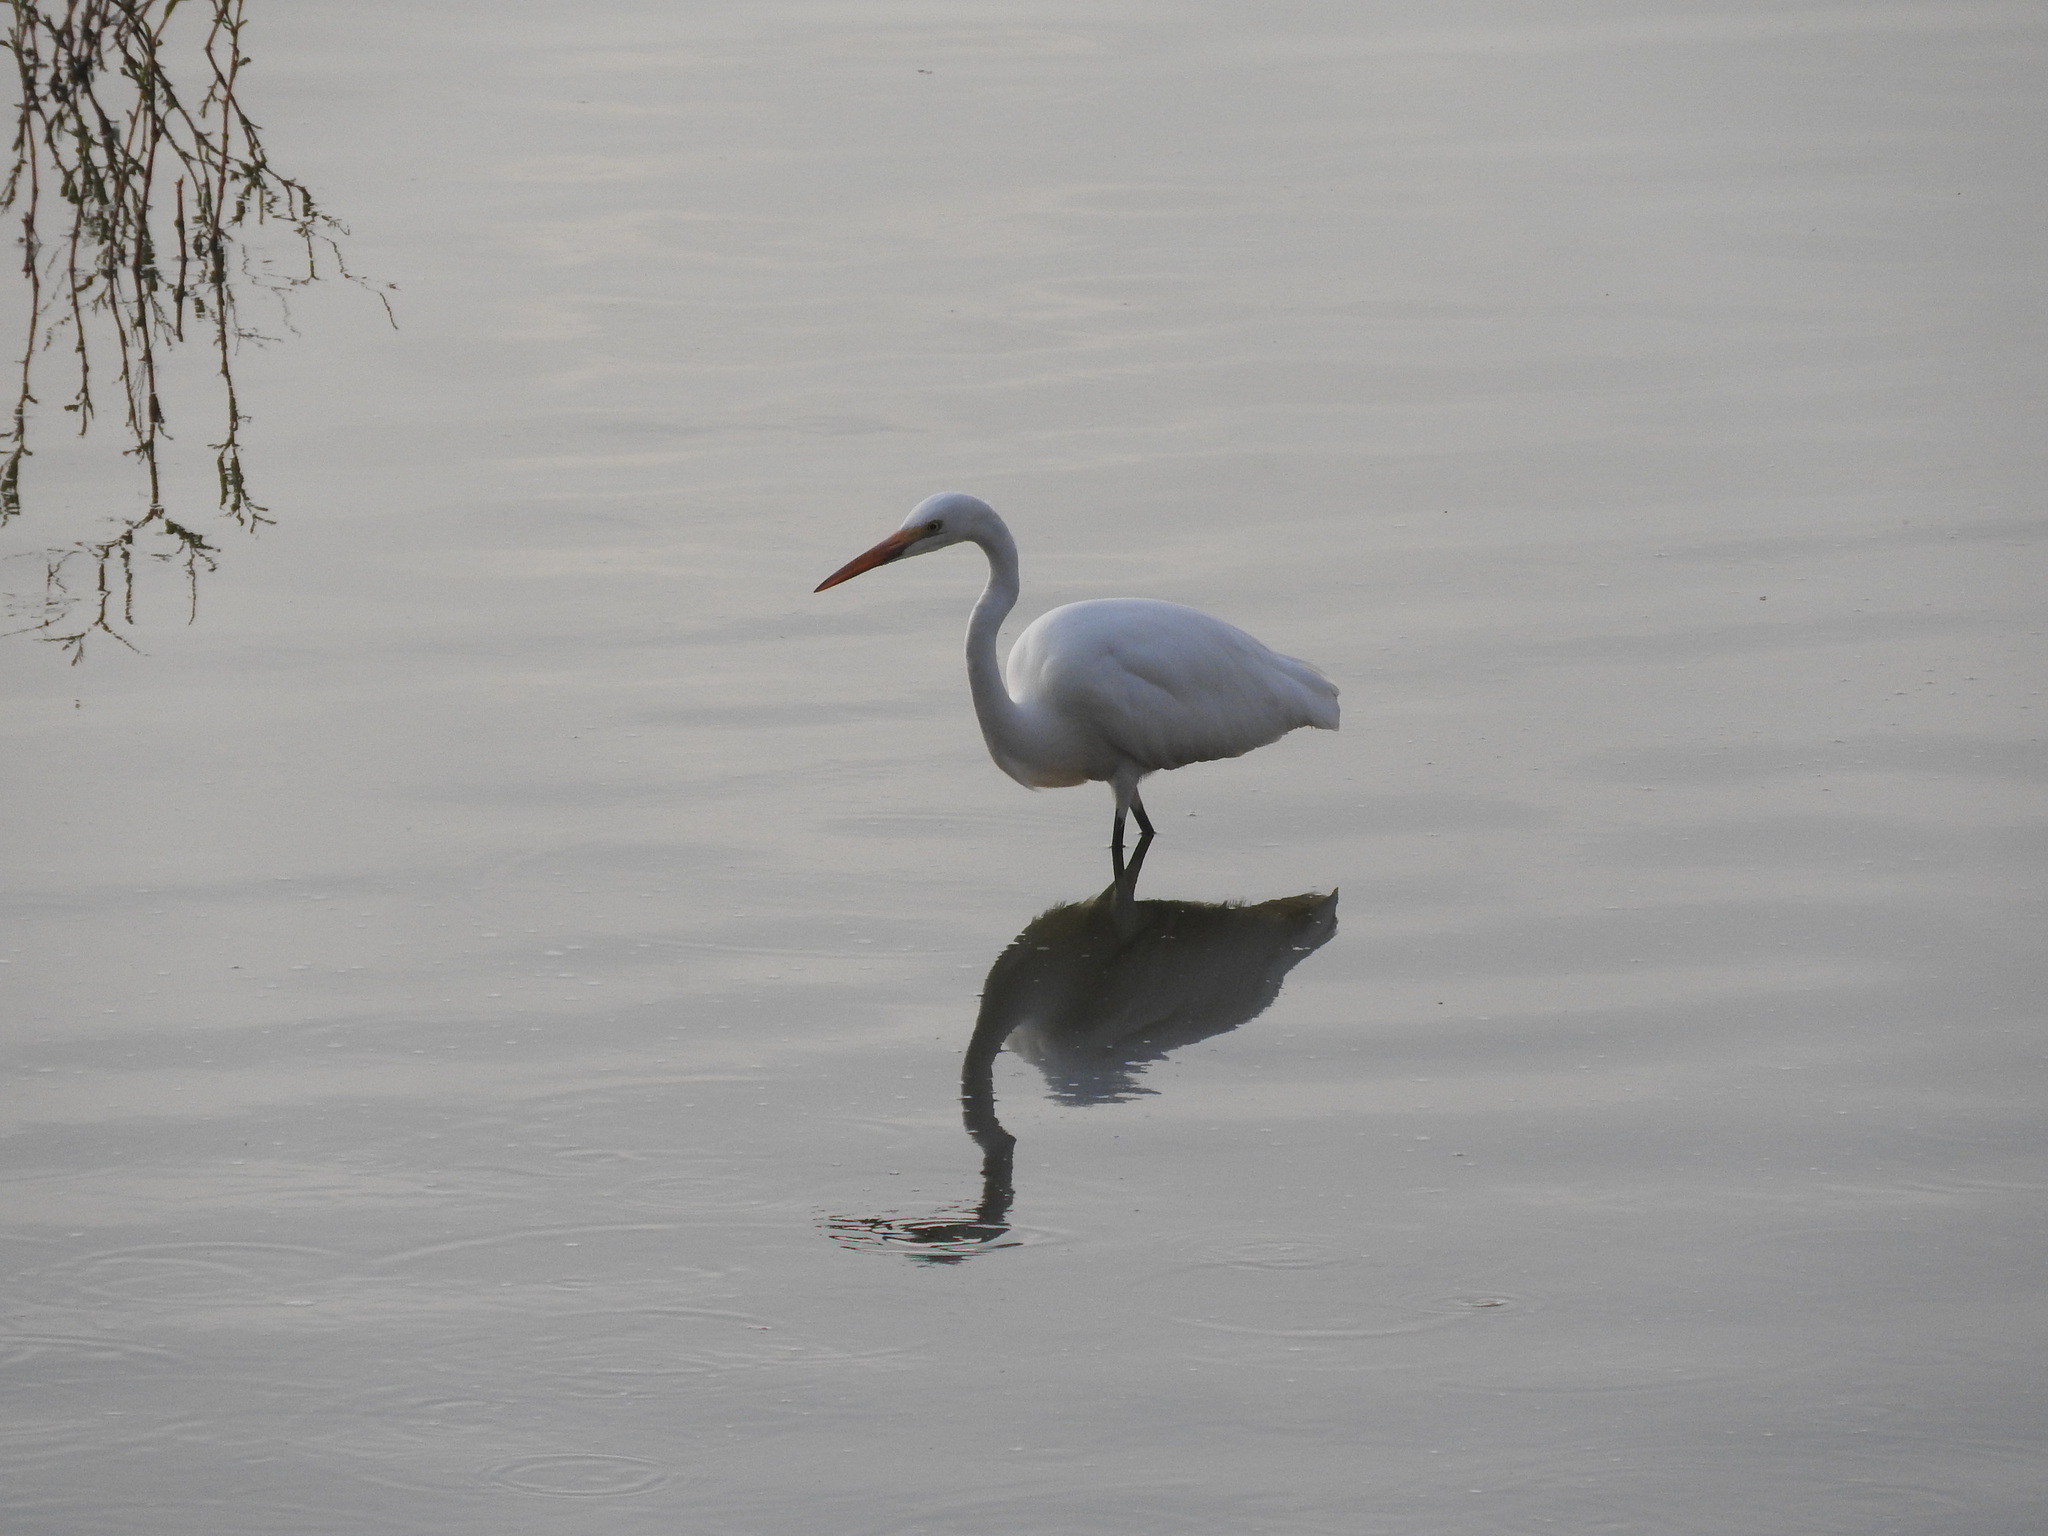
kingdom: Animalia
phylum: Chordata
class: Aves
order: Pelecaniformes
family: Ardeidae
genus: Ardea
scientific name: Ardea alba
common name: Great egret
